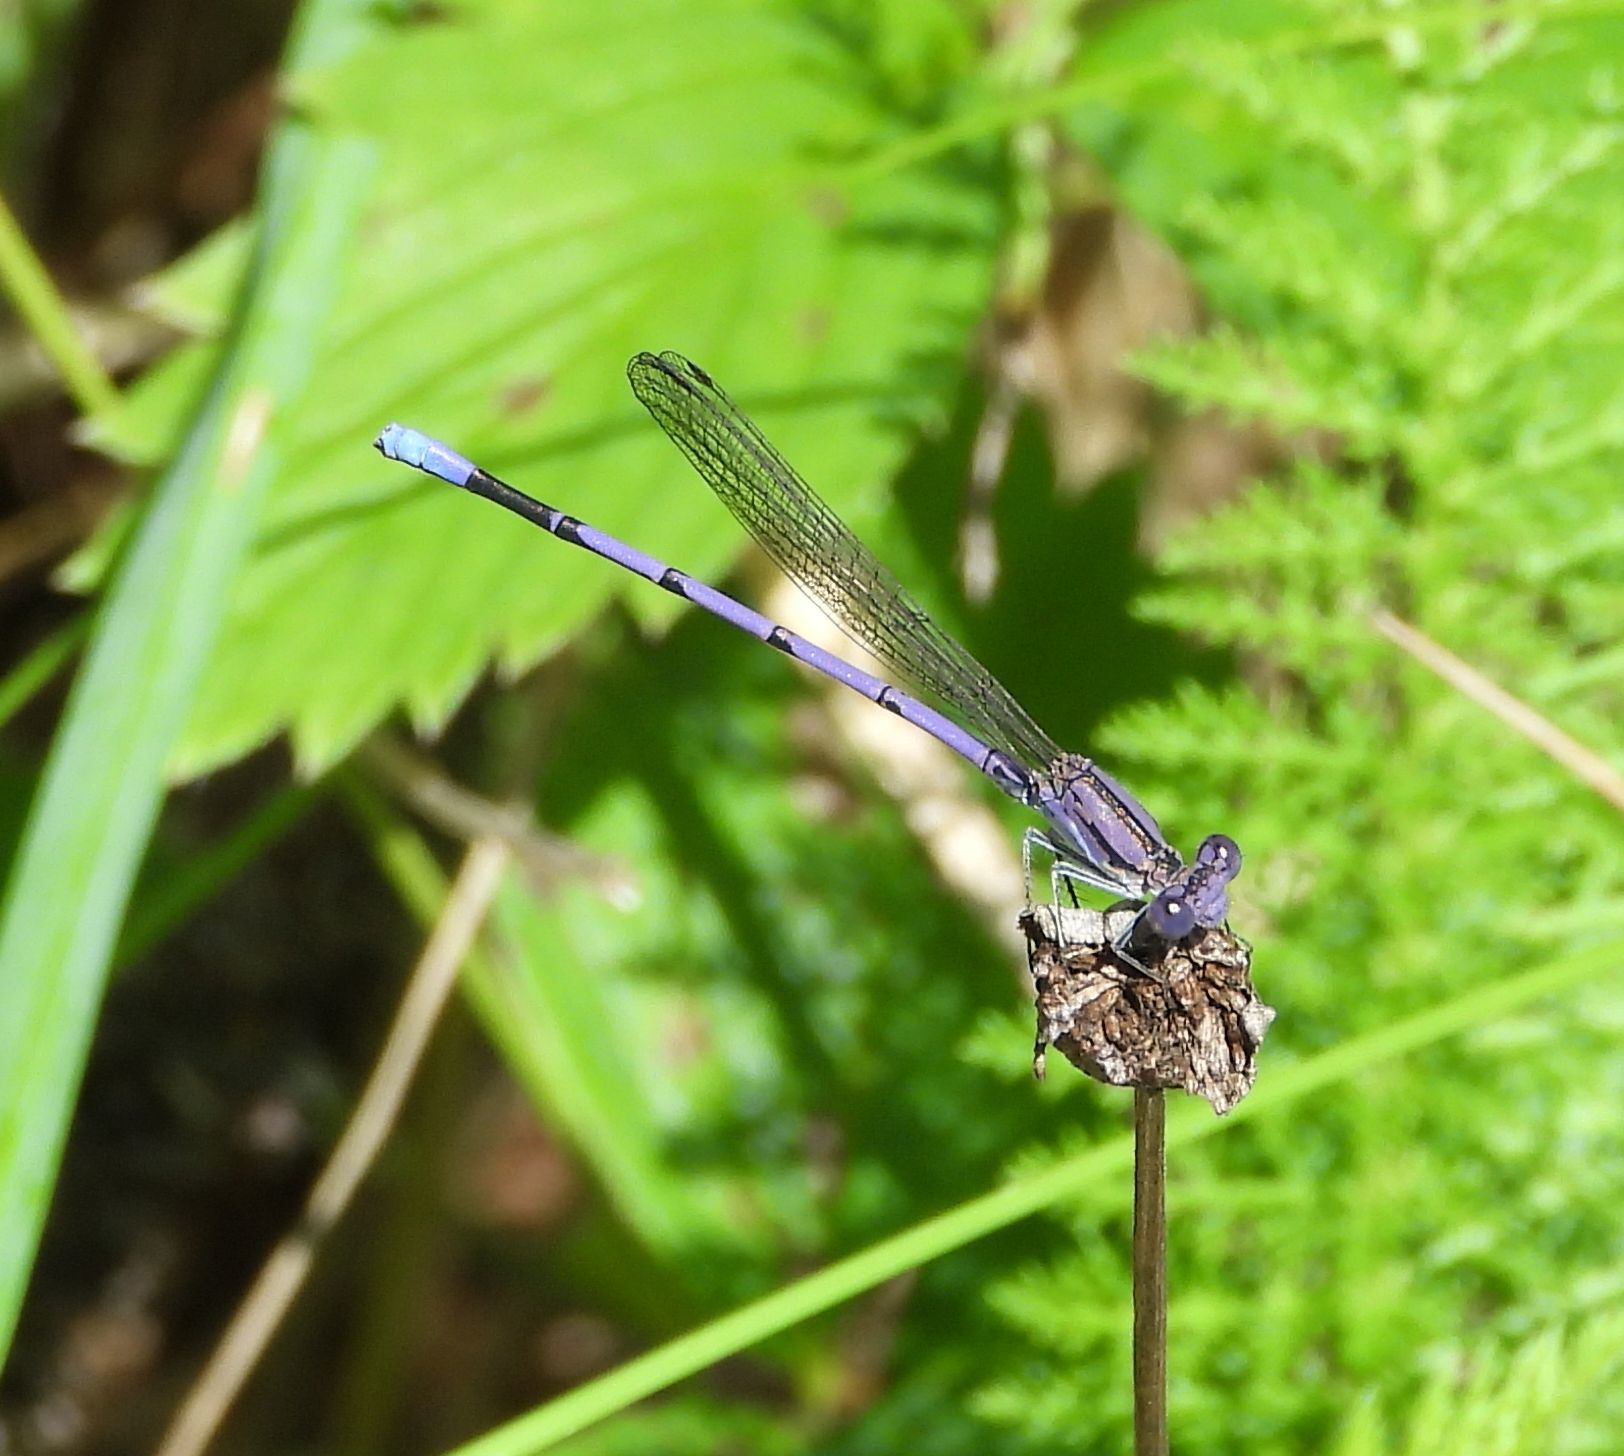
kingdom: Animalia
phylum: Arthropoda
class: Insecta
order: Odonata
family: Coenagrionidae
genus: Argia
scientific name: Argia fumipennis
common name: Variable dancer
